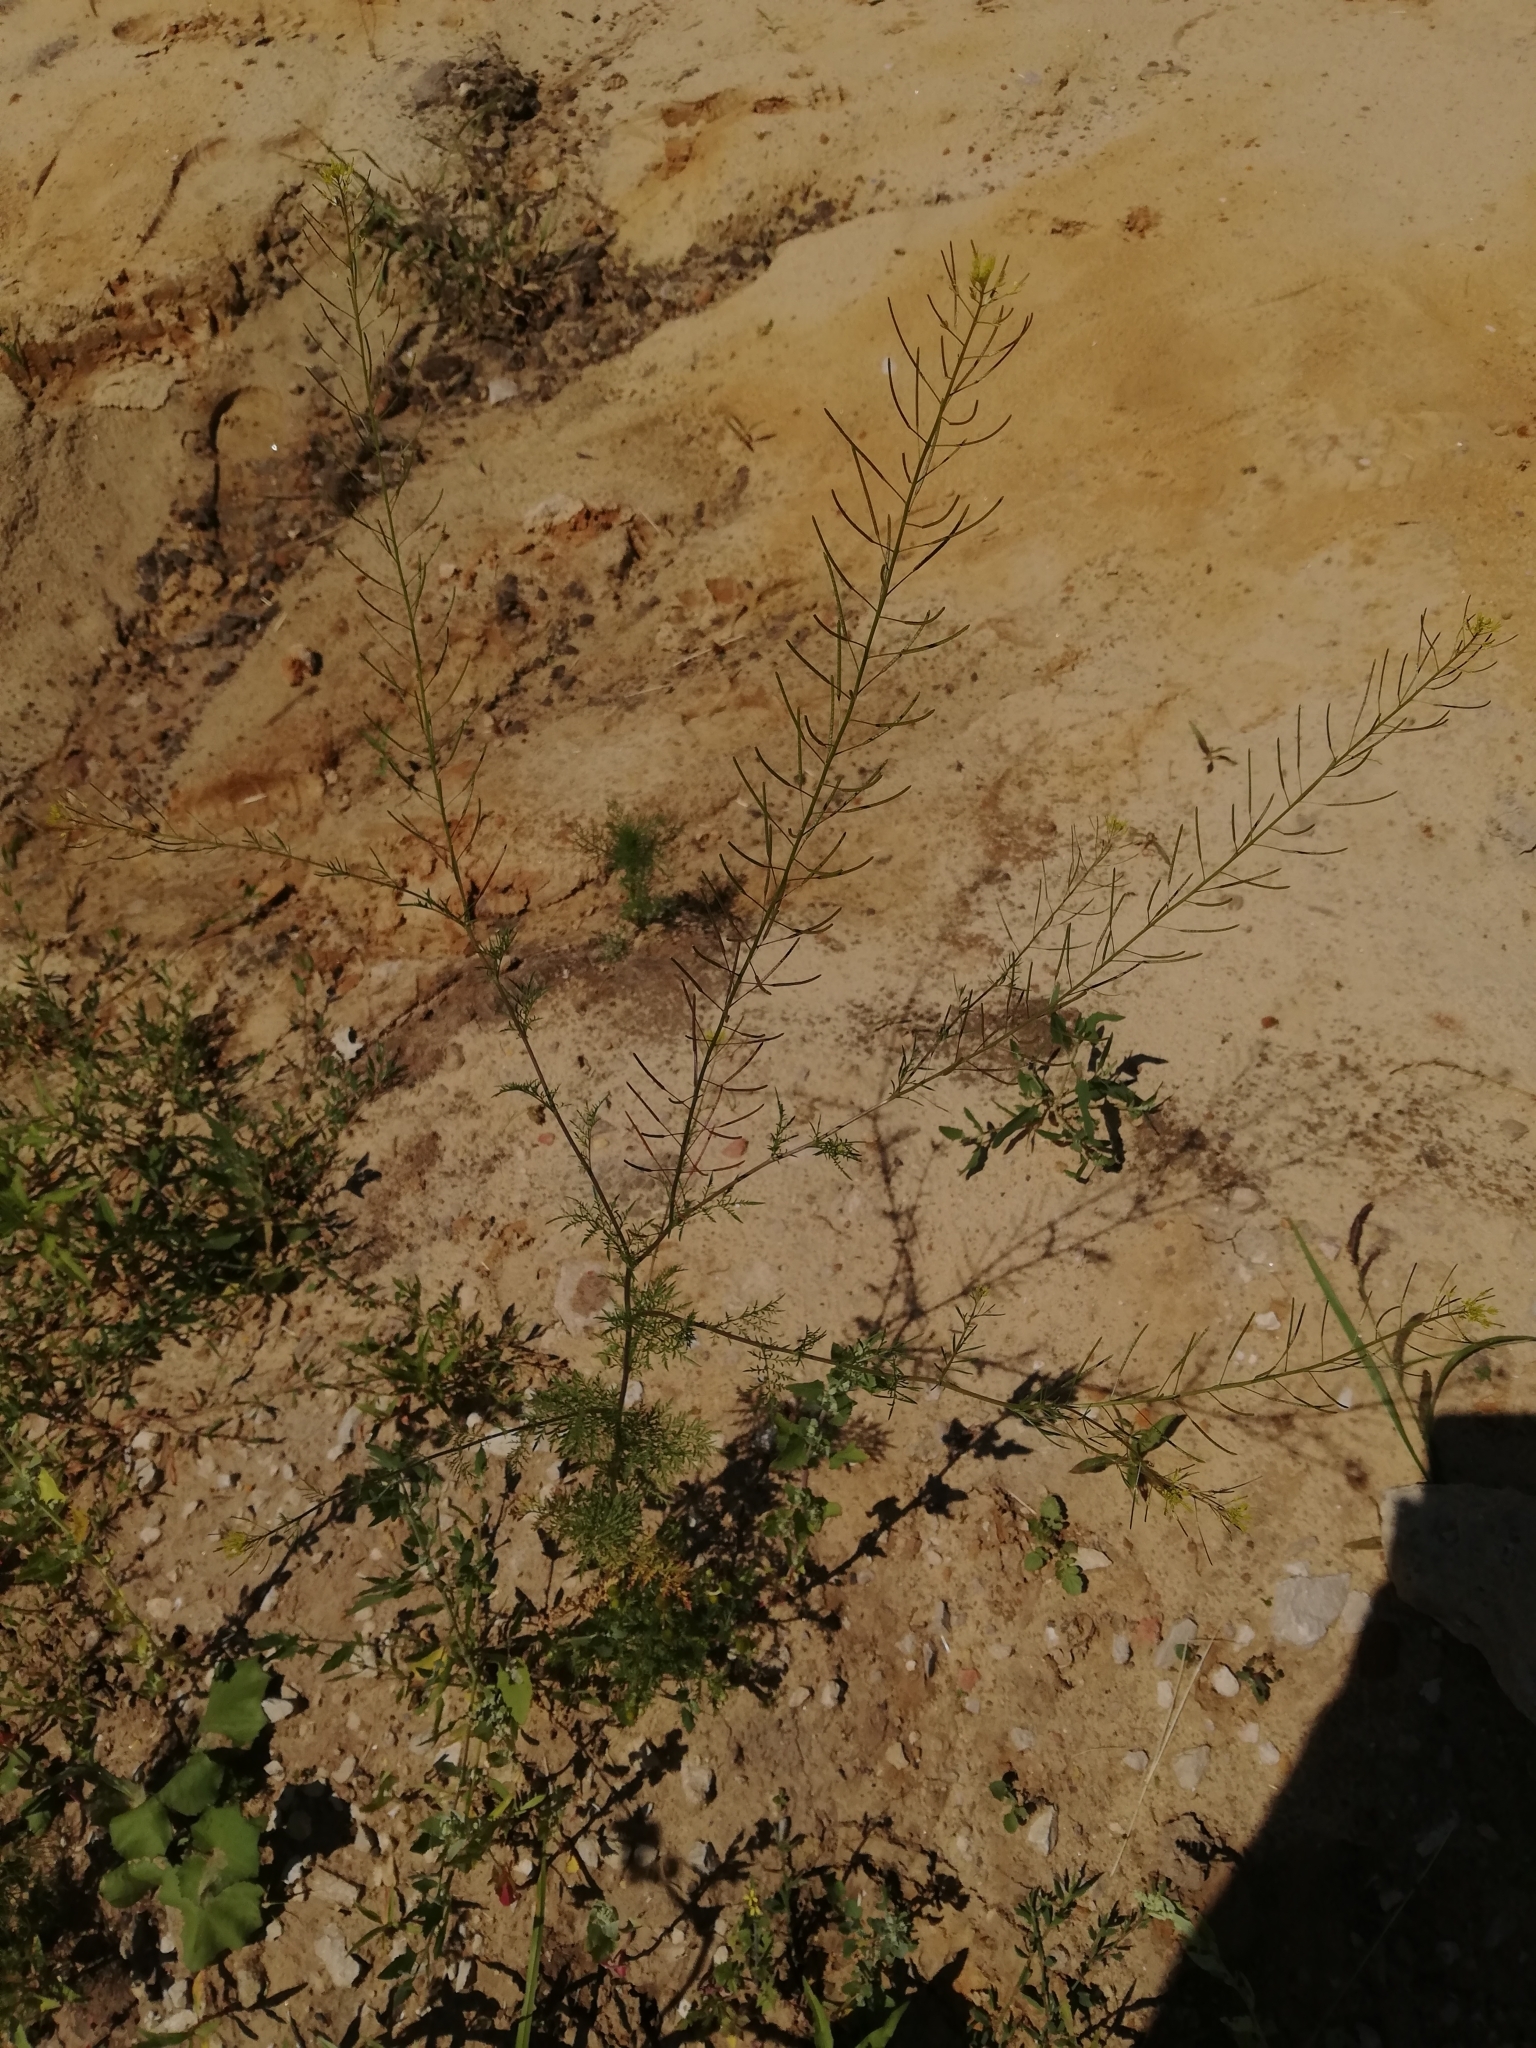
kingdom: Plantae
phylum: Tracheophyta
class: Magnoliopsida
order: Brassicales
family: Brassicaceae
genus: Descurainia
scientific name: Descurainia sophia
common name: Flixweed
